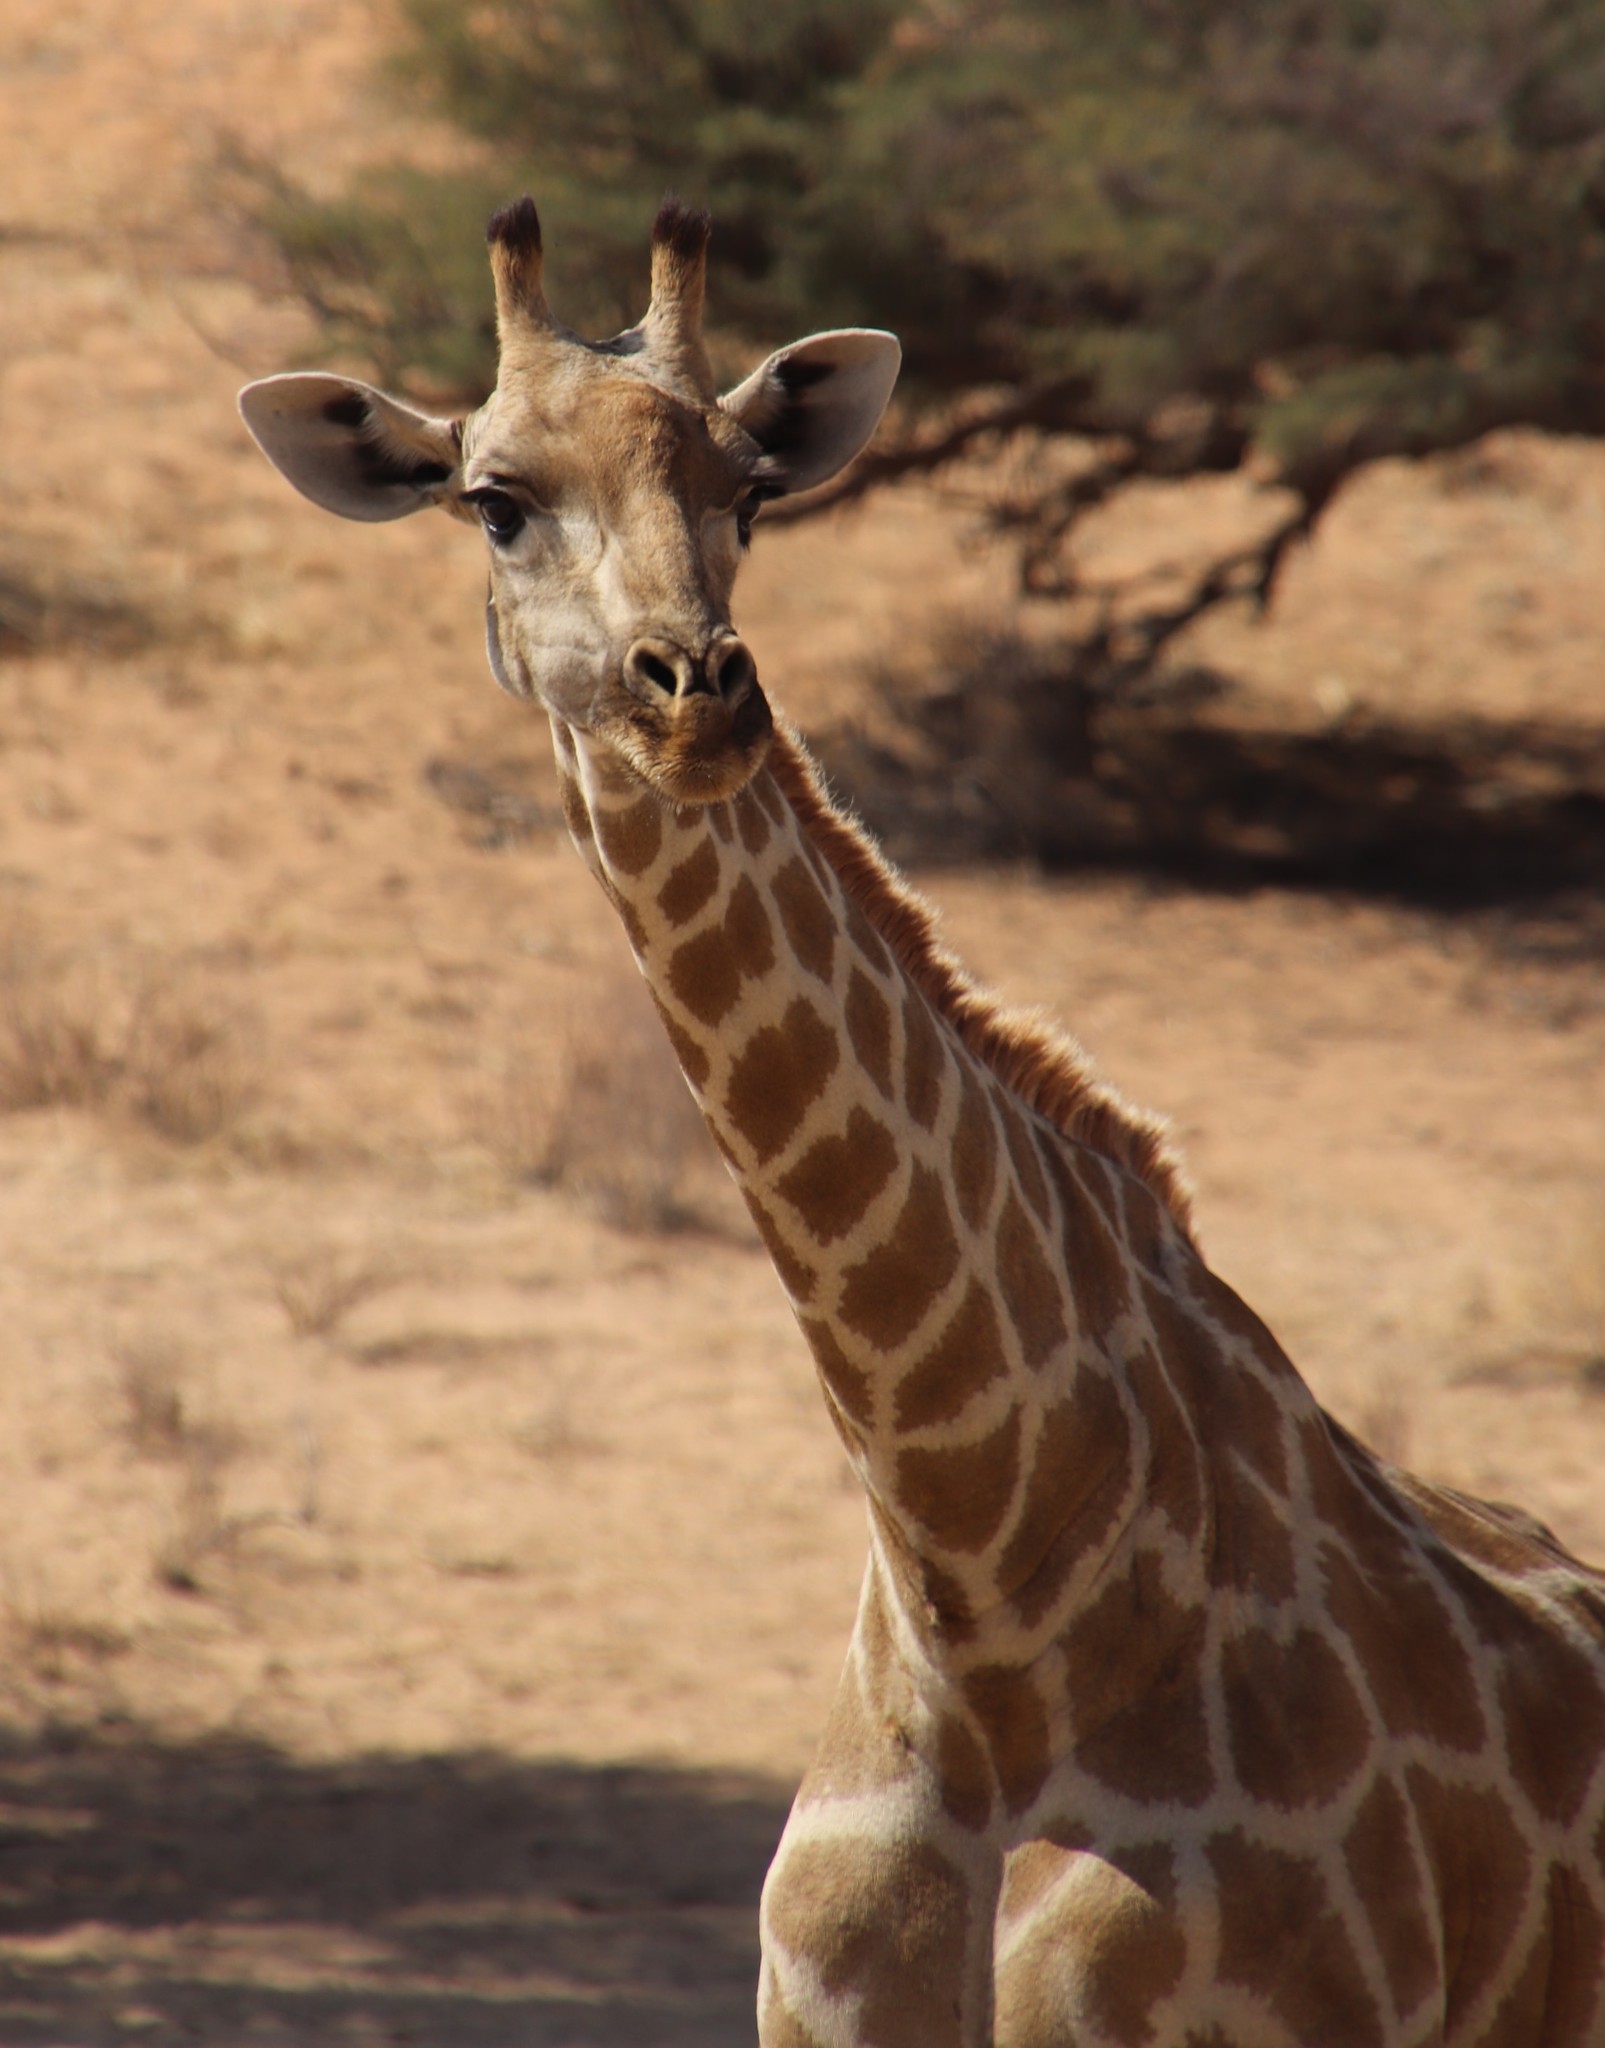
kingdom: Animalia
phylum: Chordata
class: Mammalia
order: Artiodactyla
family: Giraffidae
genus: Giraffa
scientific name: Giraffa giraffa
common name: Southern giraffe
